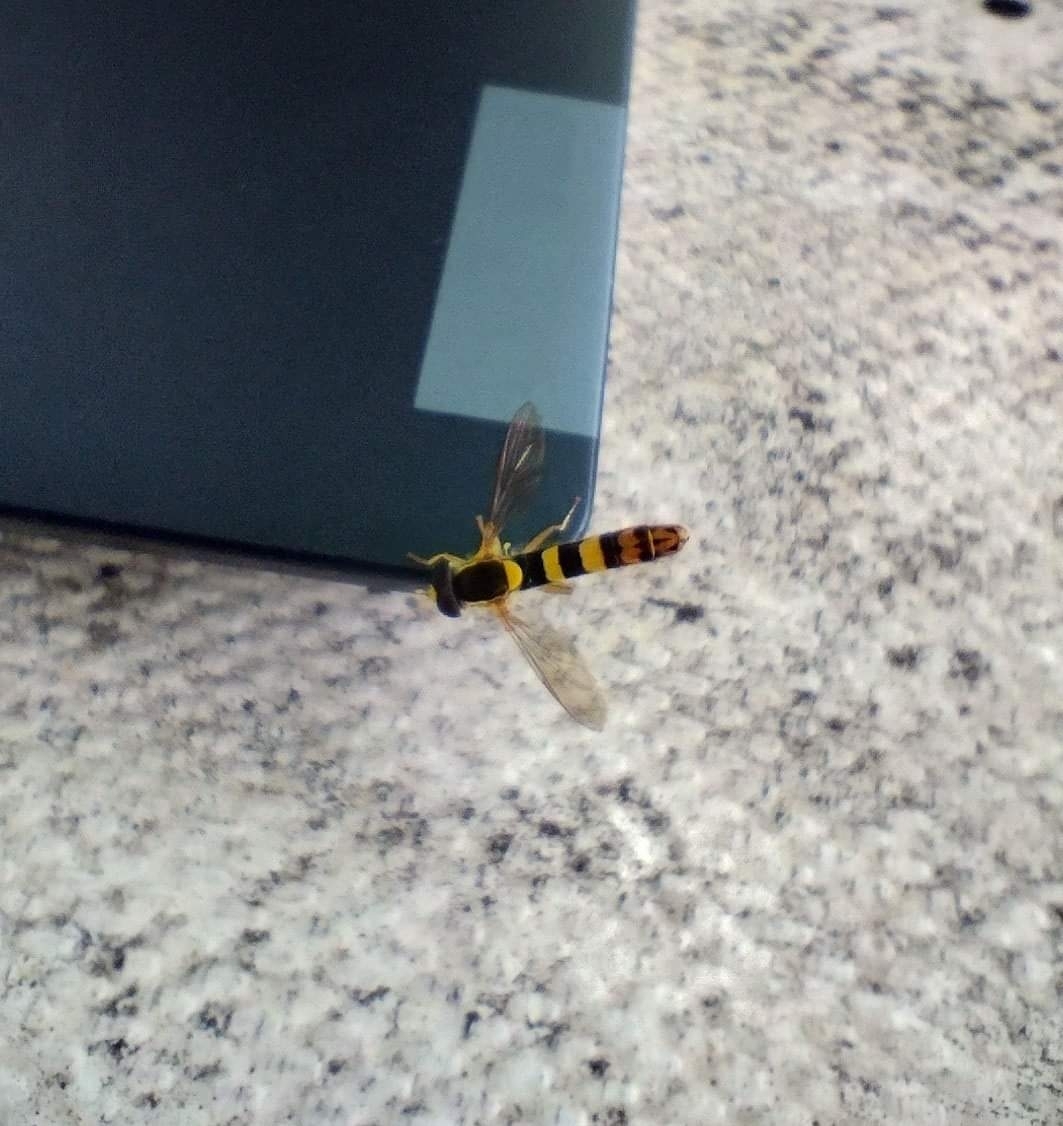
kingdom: Animalia
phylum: Arthropoda
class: Insecta
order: Diptera
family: Syrphidae
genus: Sphaerophoria
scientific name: Sphaerophoria scripta
